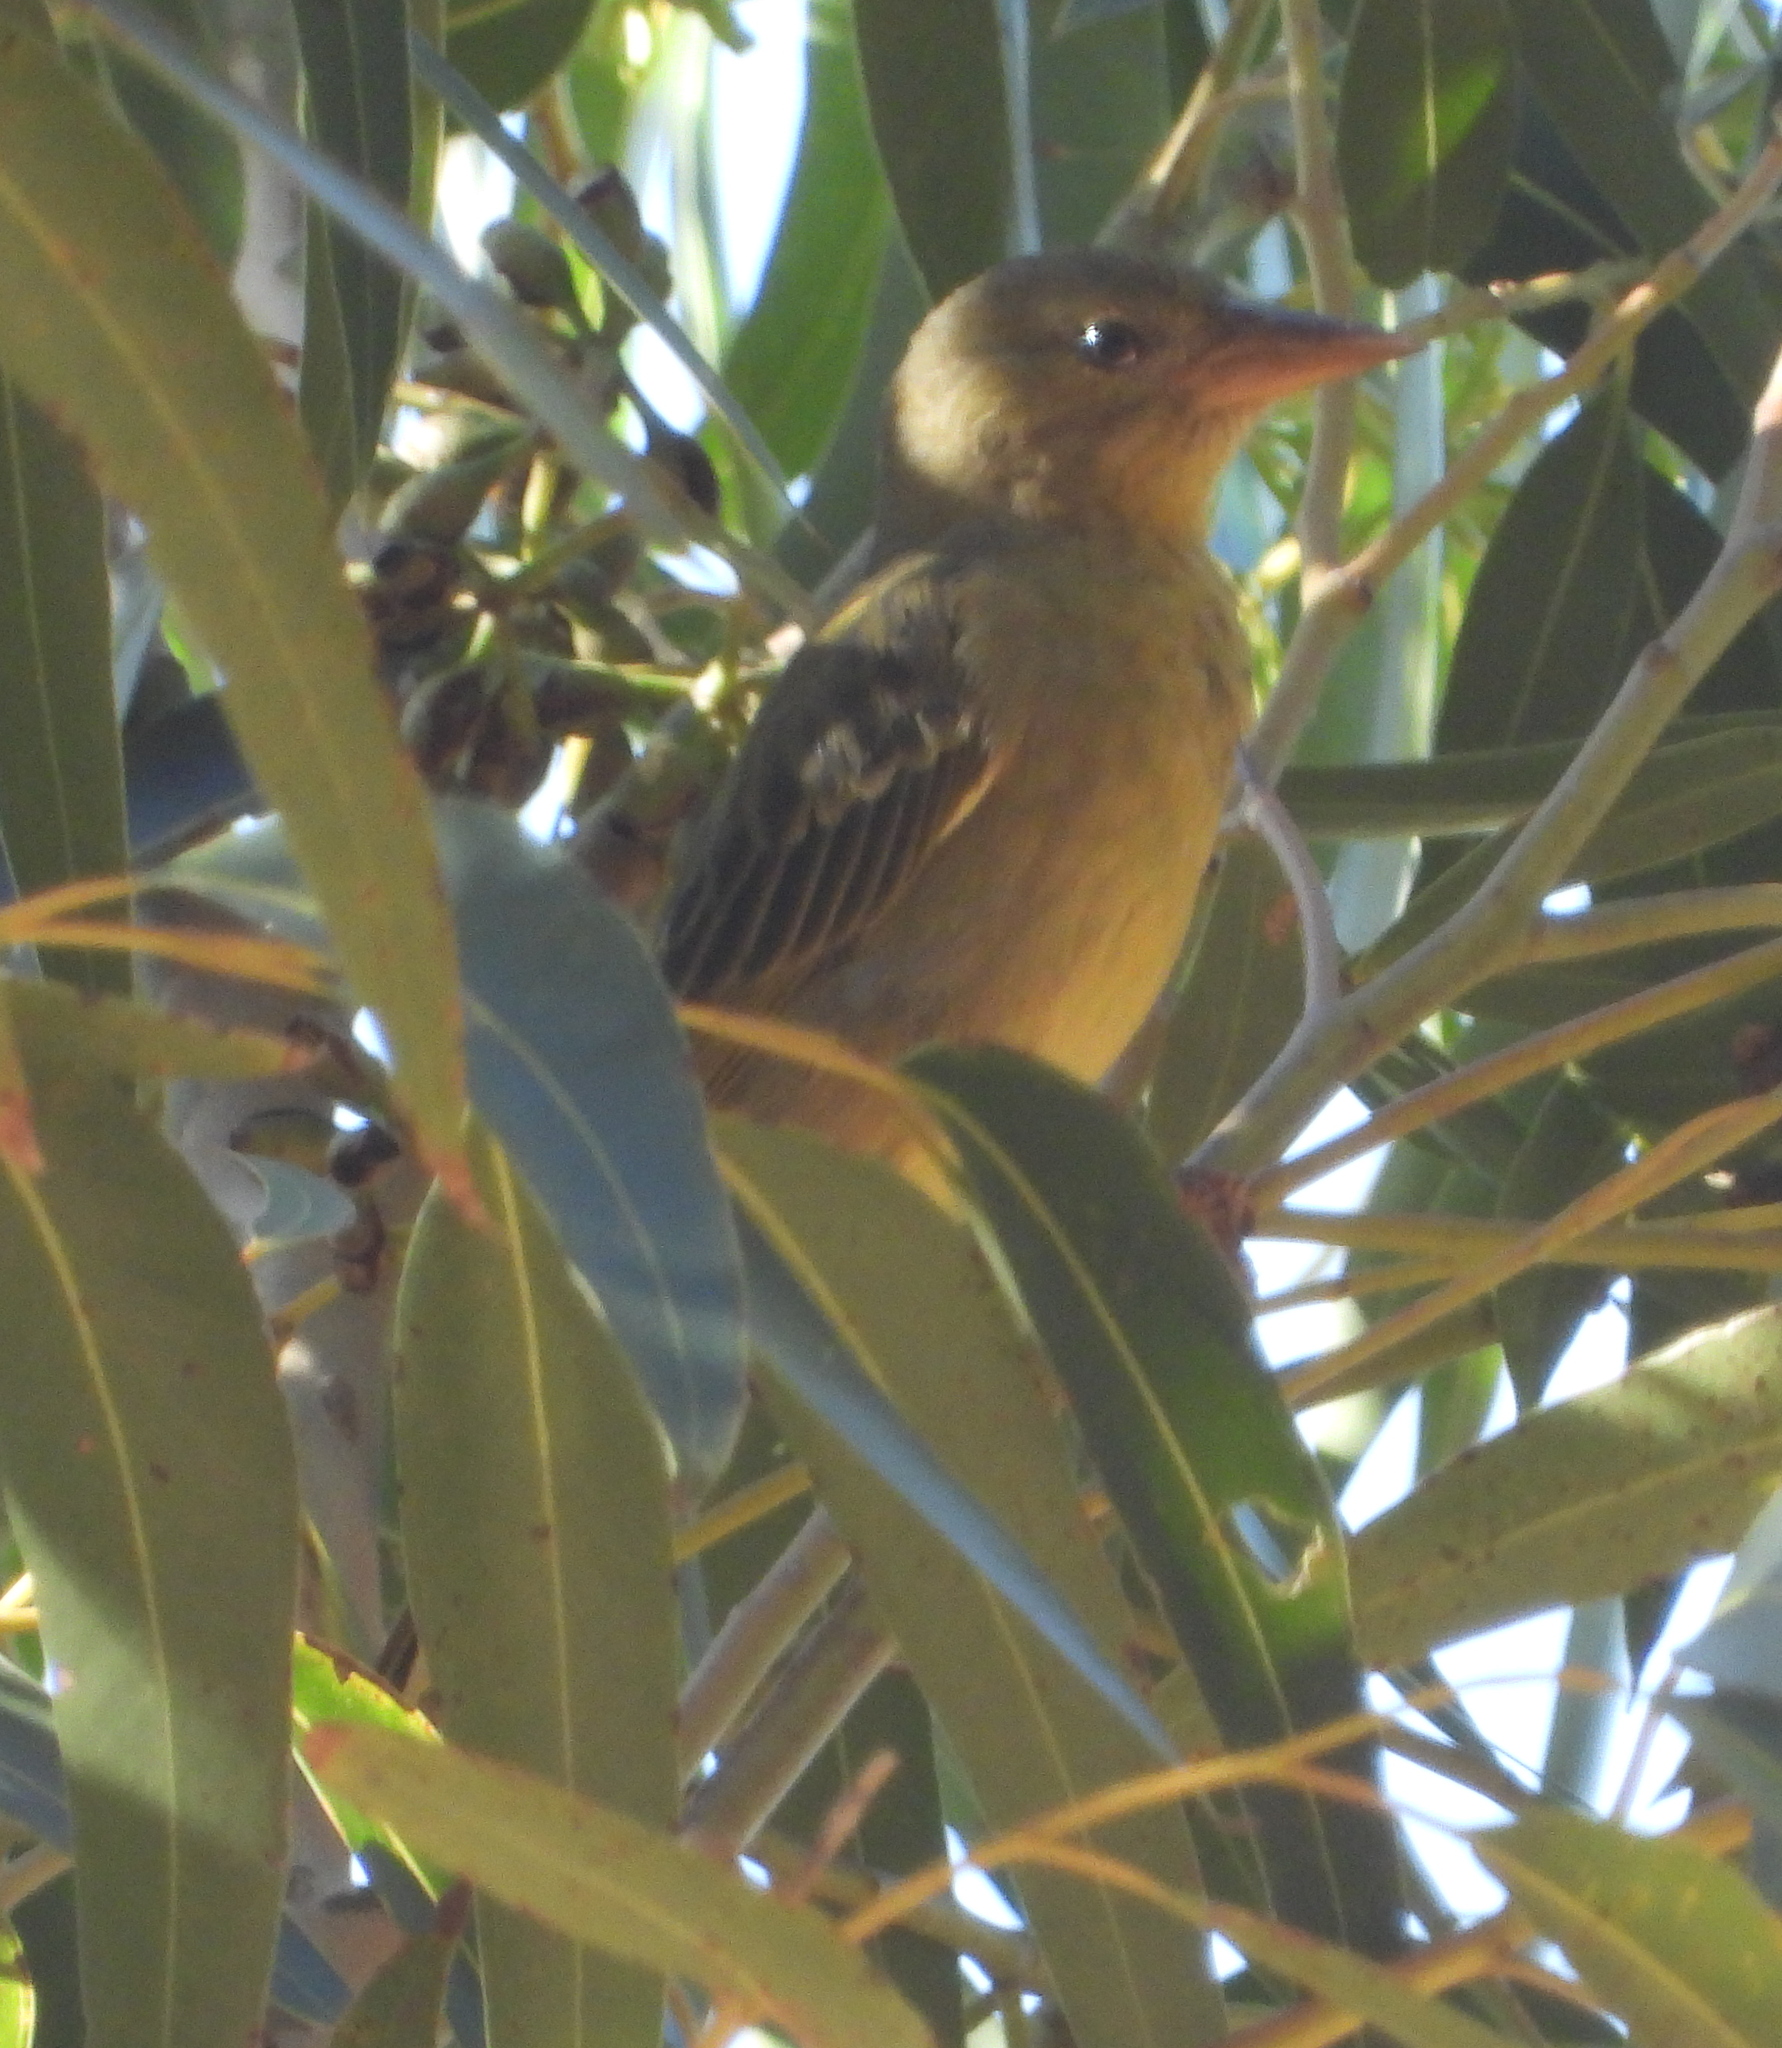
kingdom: Animalia
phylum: Chordata
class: Aves
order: Passeriformes
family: Ploceidae
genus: Ploceus
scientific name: Ploceus capensis
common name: Cape weaver
